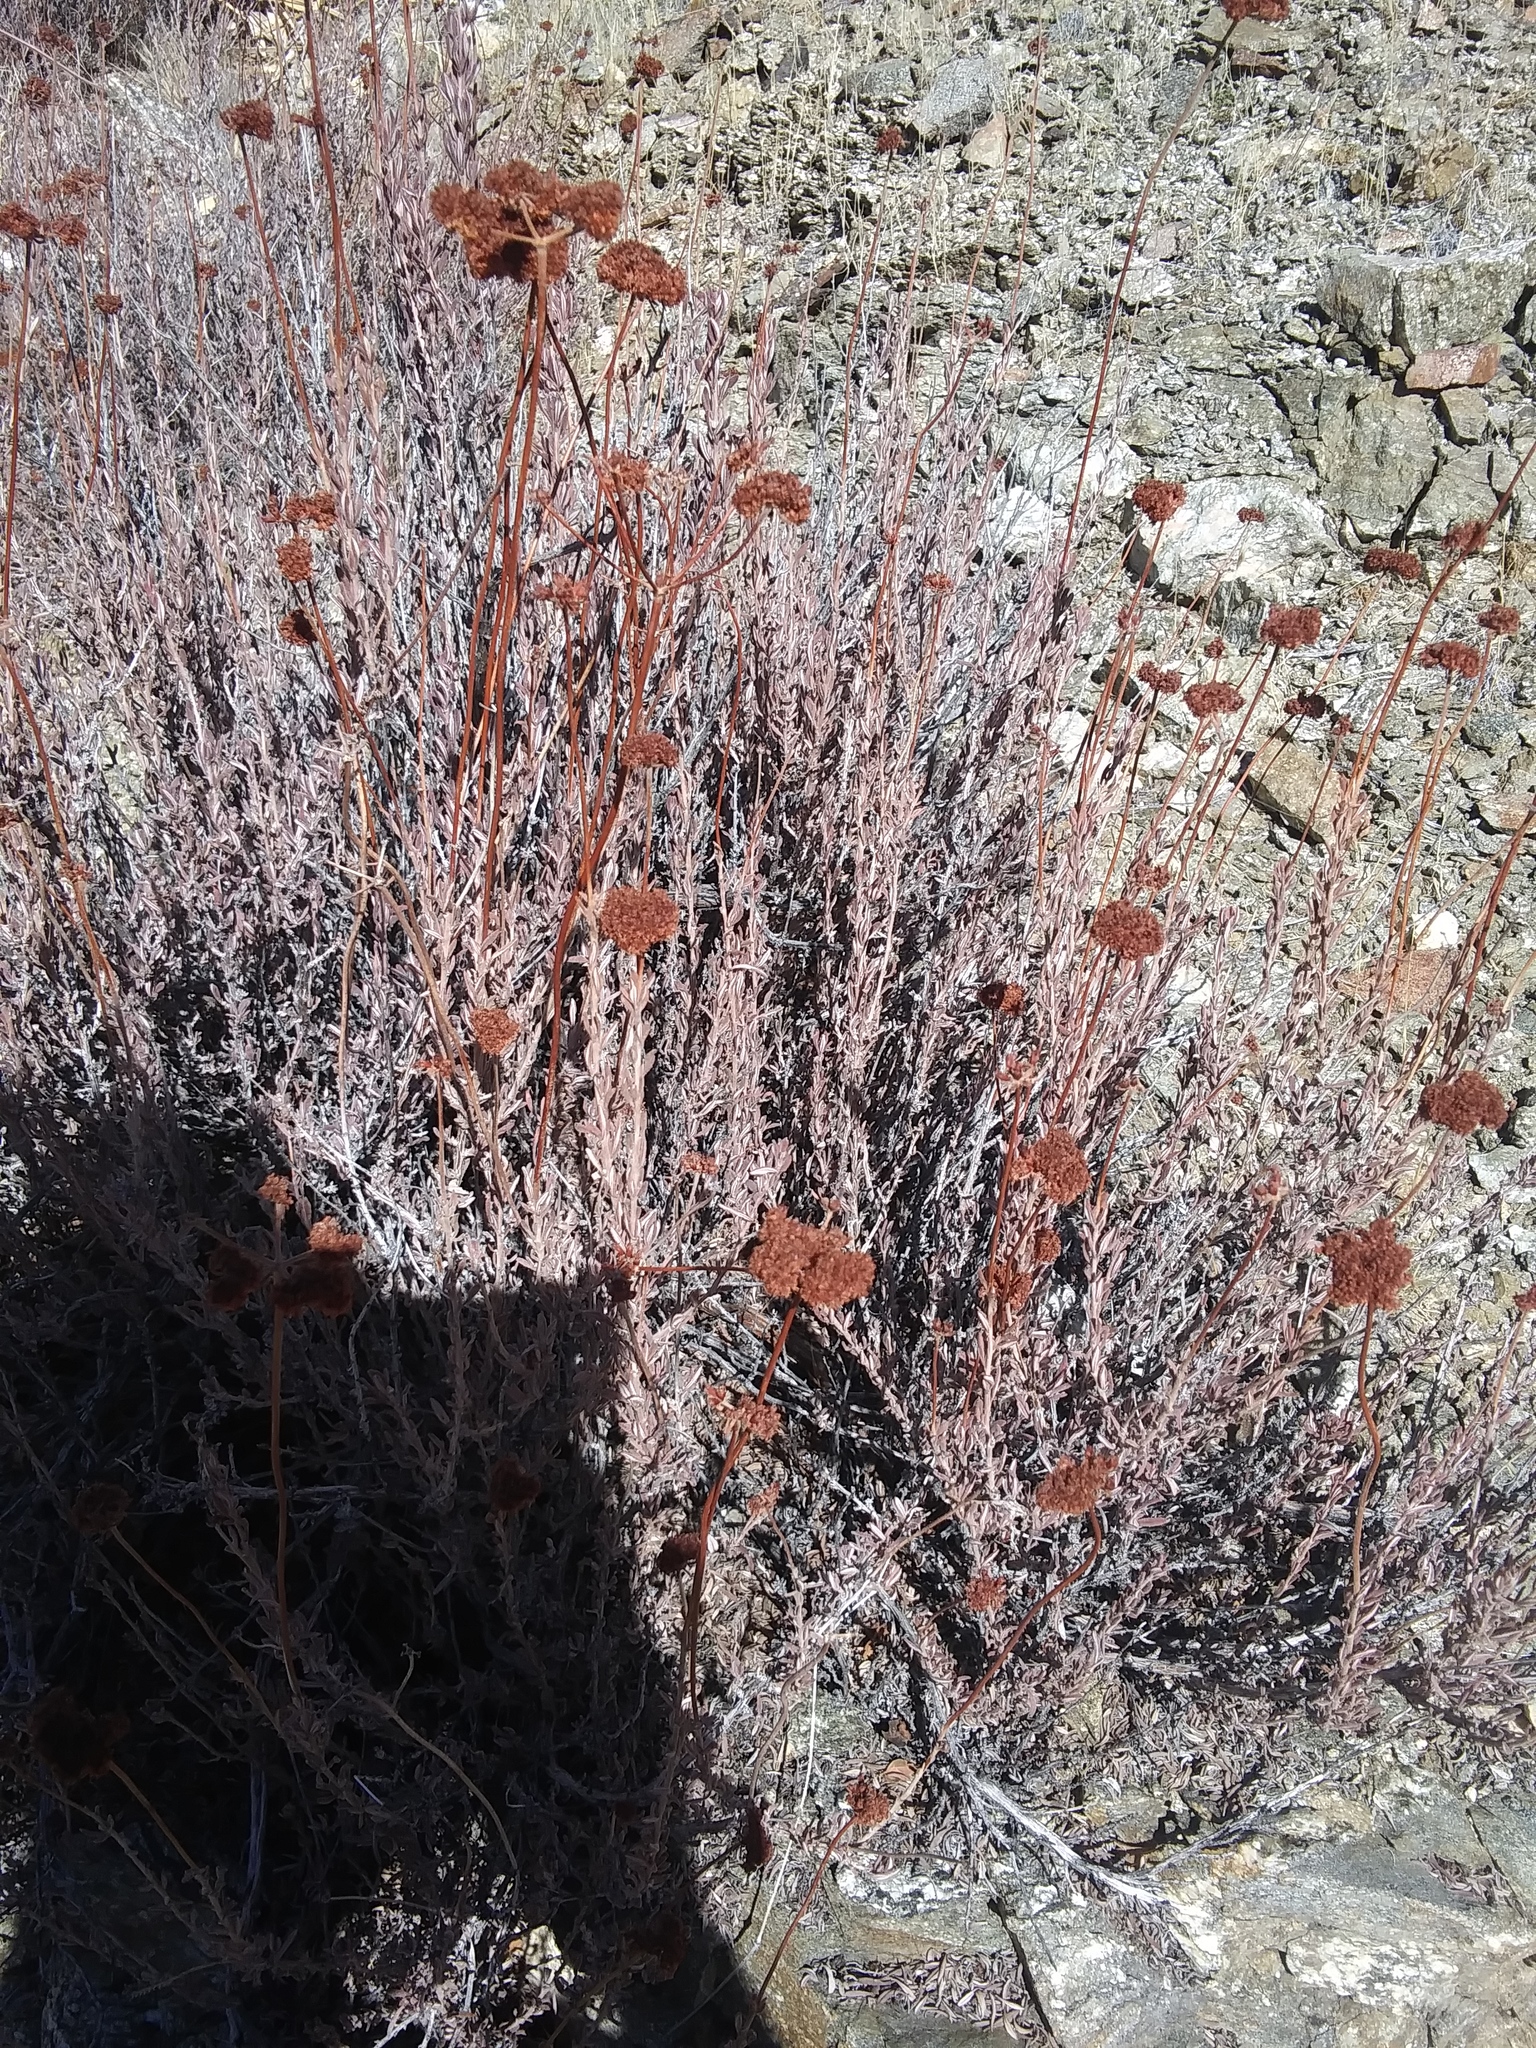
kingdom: Plantae
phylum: Tracheophyta
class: Magnoliopsida
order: Caryophyllales
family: Polygonaceae
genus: Eriogonum
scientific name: Eriogonum fasciculatum
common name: California wild buckwheat
